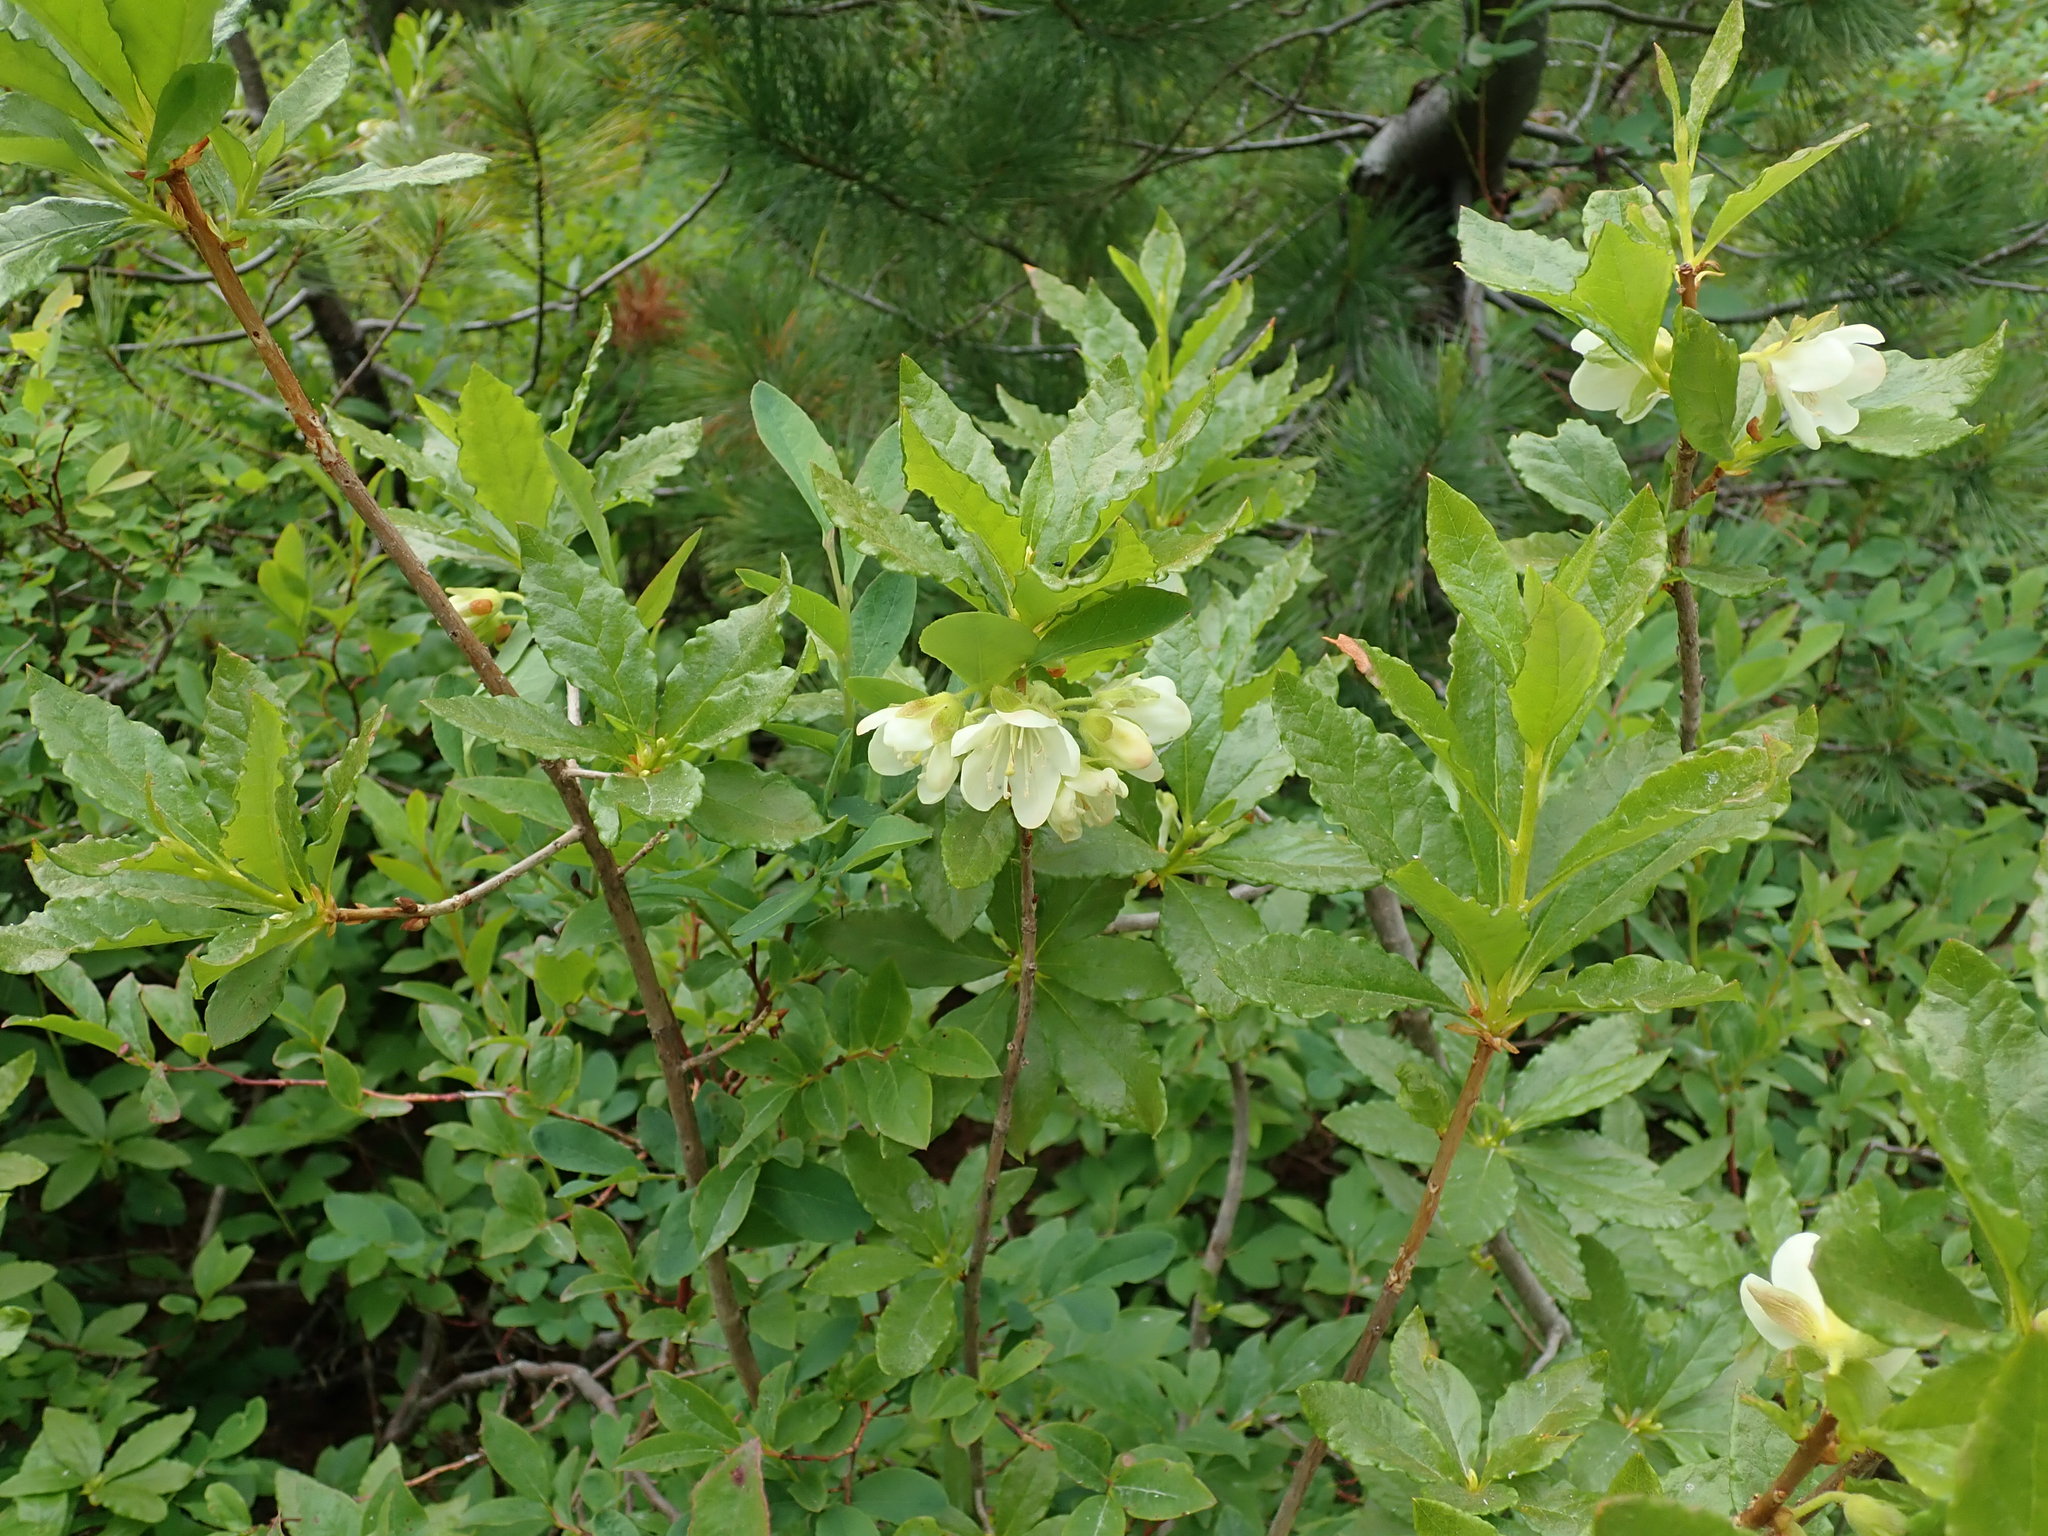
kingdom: Plantae
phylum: Tracheophyta
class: Magnoliopsida
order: Ericales
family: Ericaceae
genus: Rhododendron
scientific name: Rhododendron albiflorum
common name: White rhododendron
